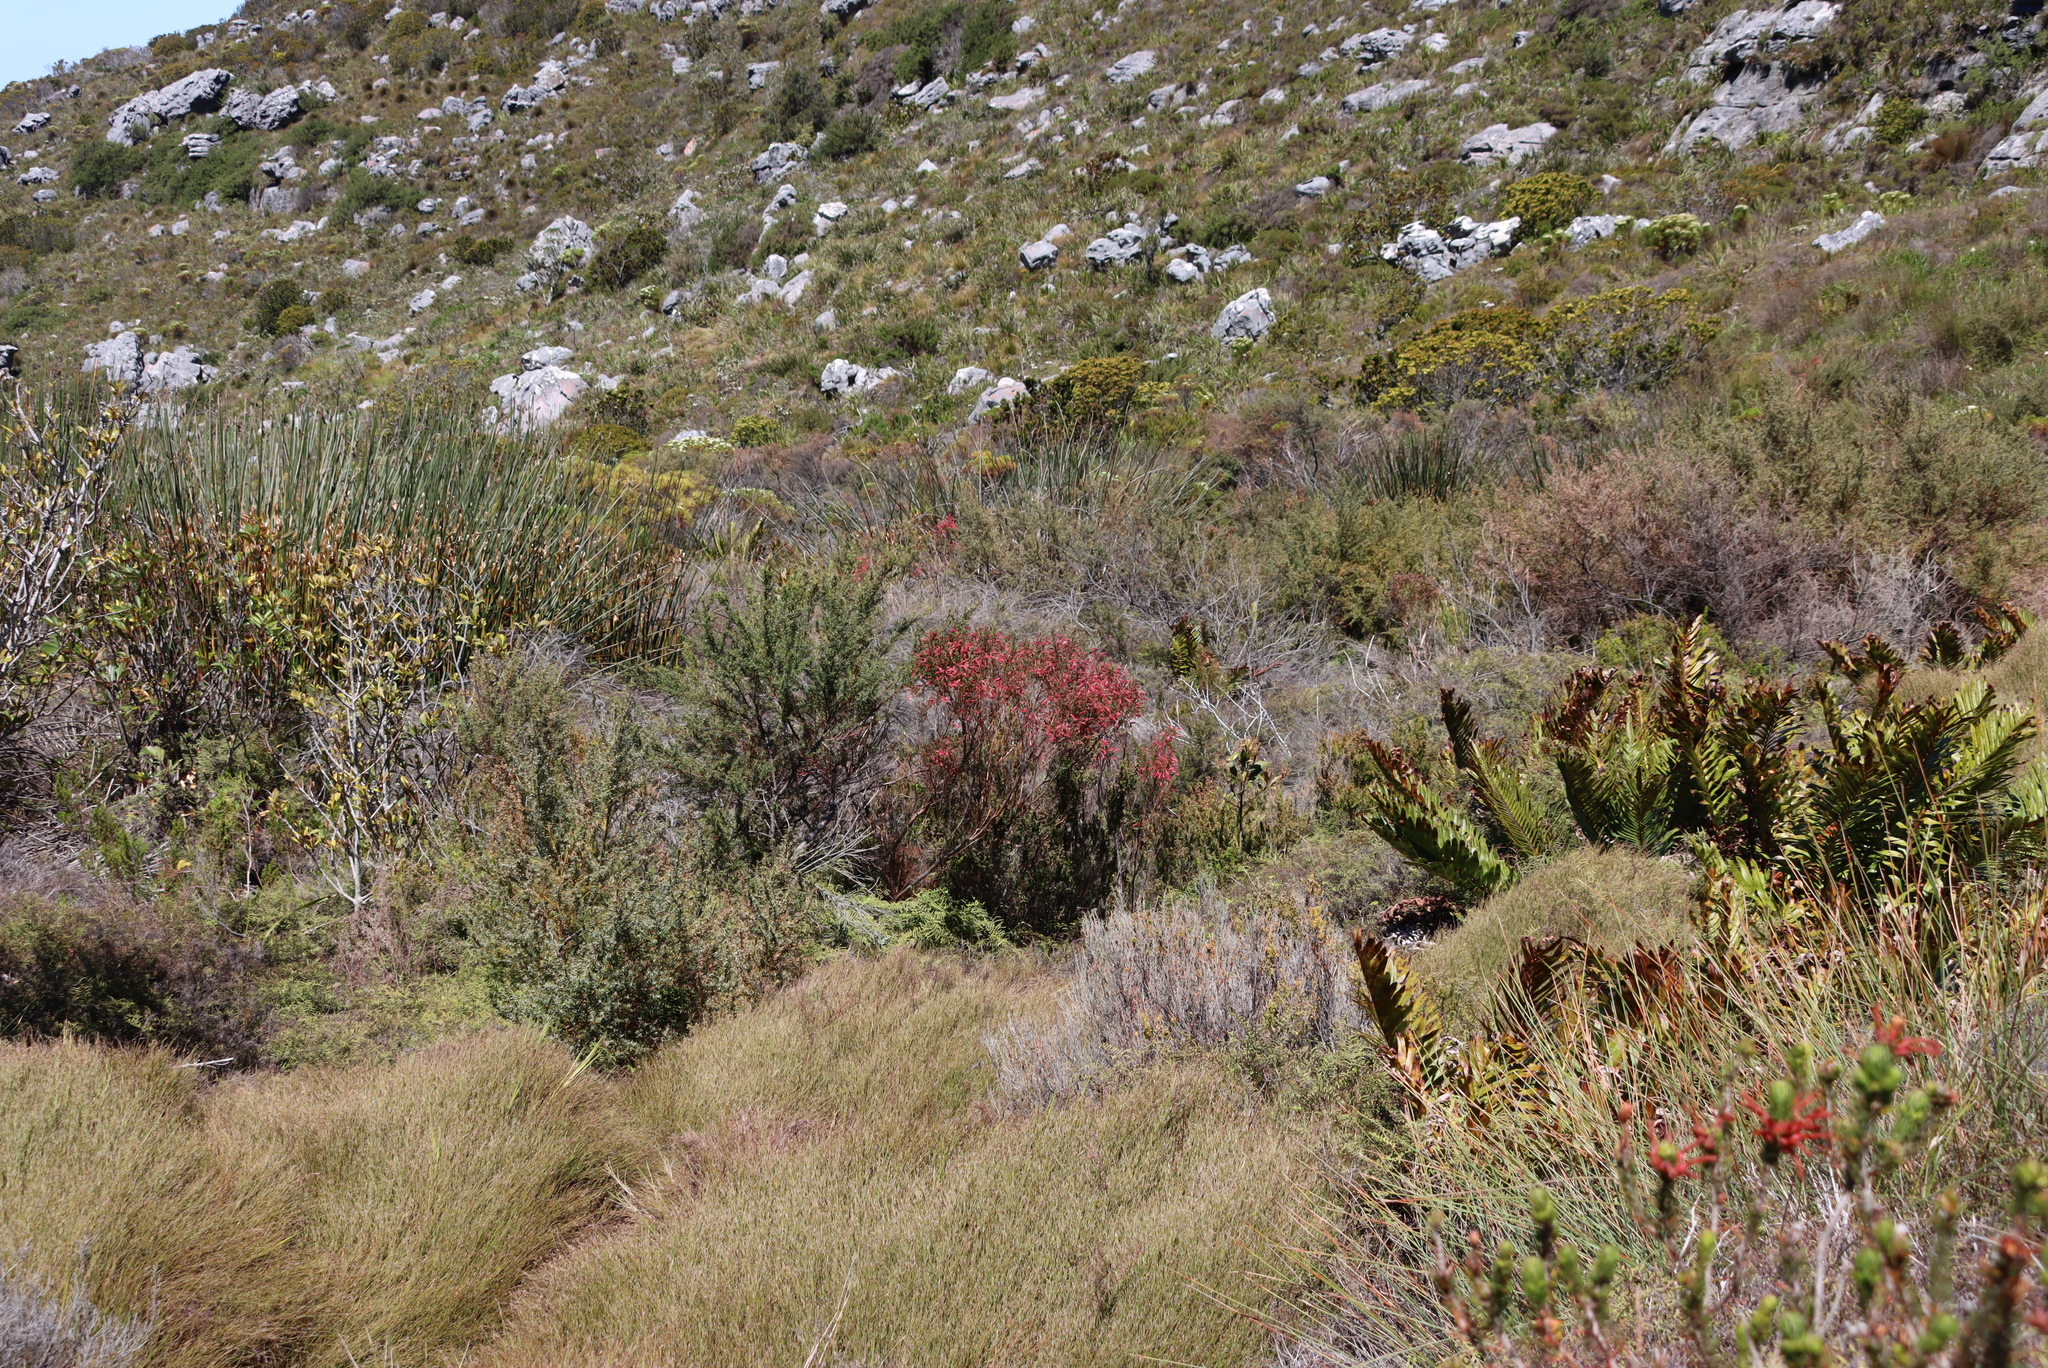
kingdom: Plantae
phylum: Tracheophyta
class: Magnoliopsida
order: Ericales
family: Ericaceae
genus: Erica
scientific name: Erica curviflora
